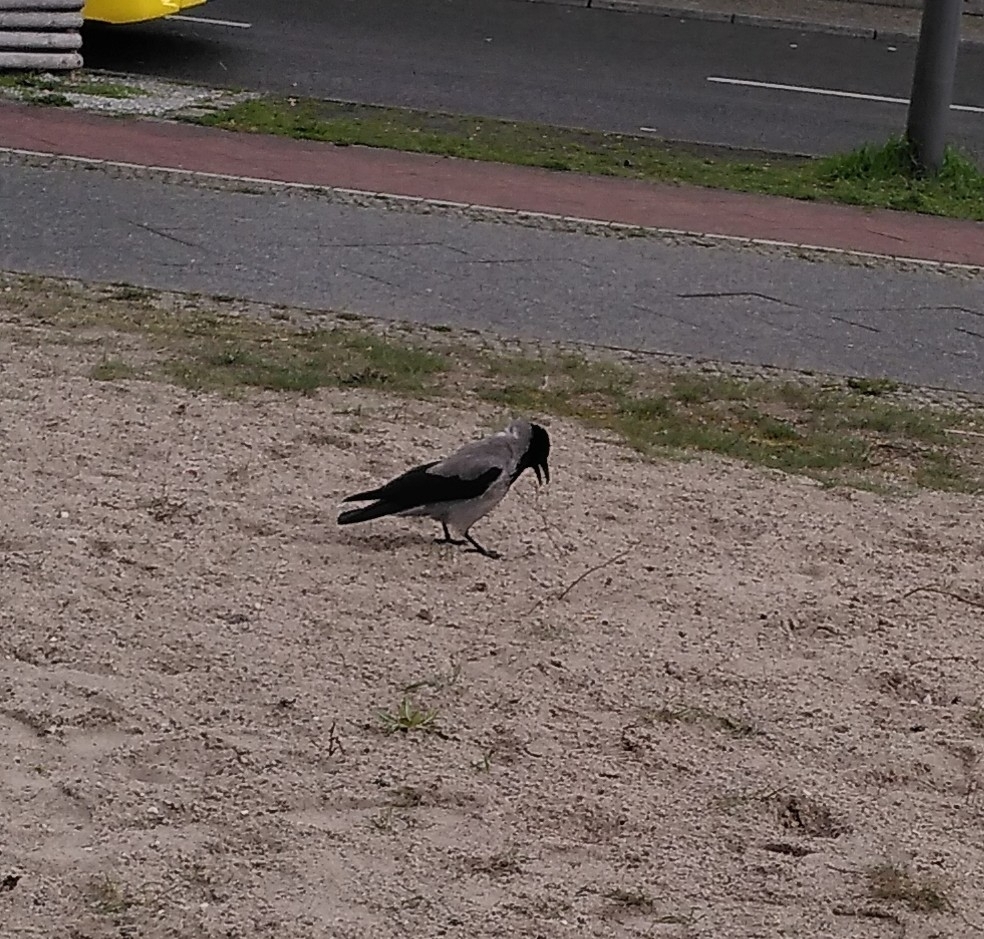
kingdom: Animalia
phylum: Chordata
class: Aves
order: Passeriformes
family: Corvidae
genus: Corvus
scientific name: Corvus cornix
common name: Hooded crow
